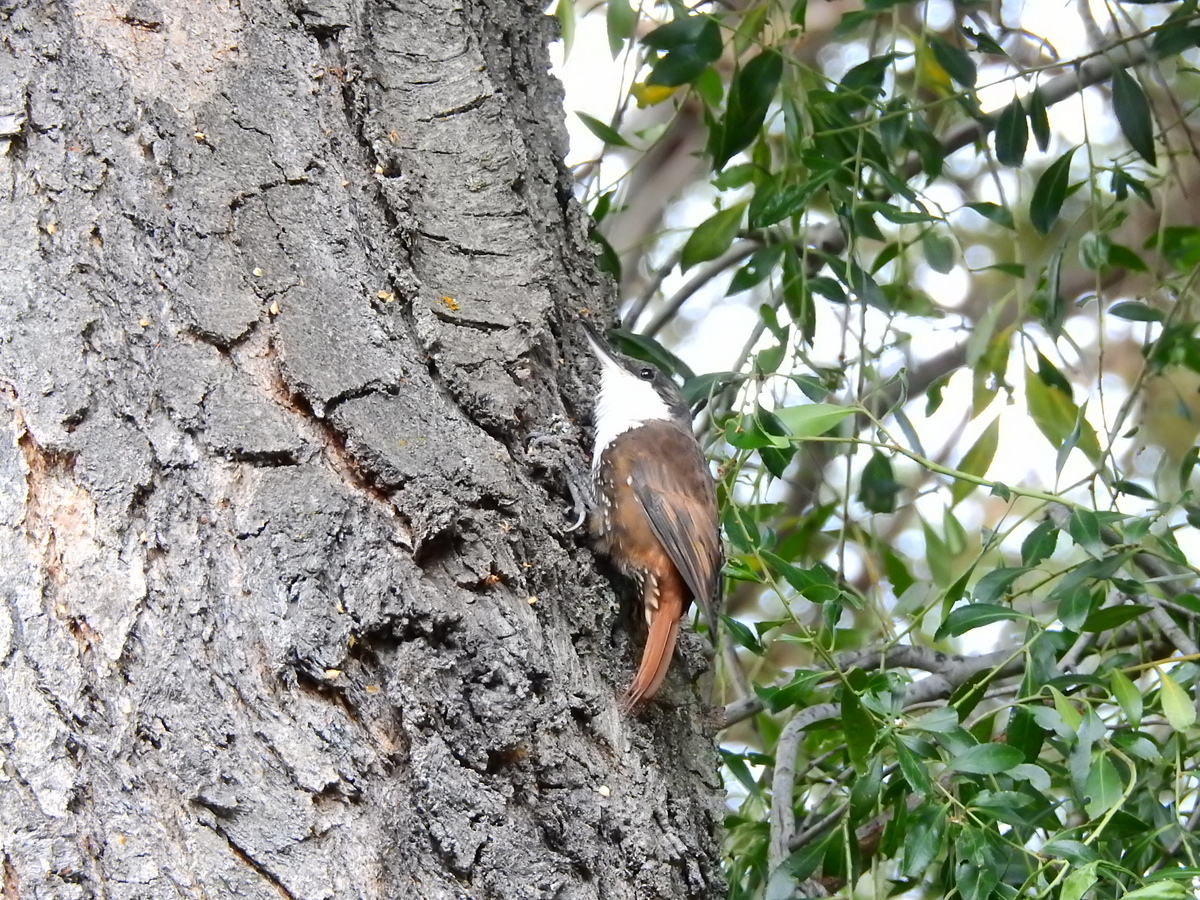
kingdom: Animalia
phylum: Chordata
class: Aves
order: Passeriformes
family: Furnariidae
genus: Pygarrhichas
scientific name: Pygarrhichas albogularis
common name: White-throated treerunner
